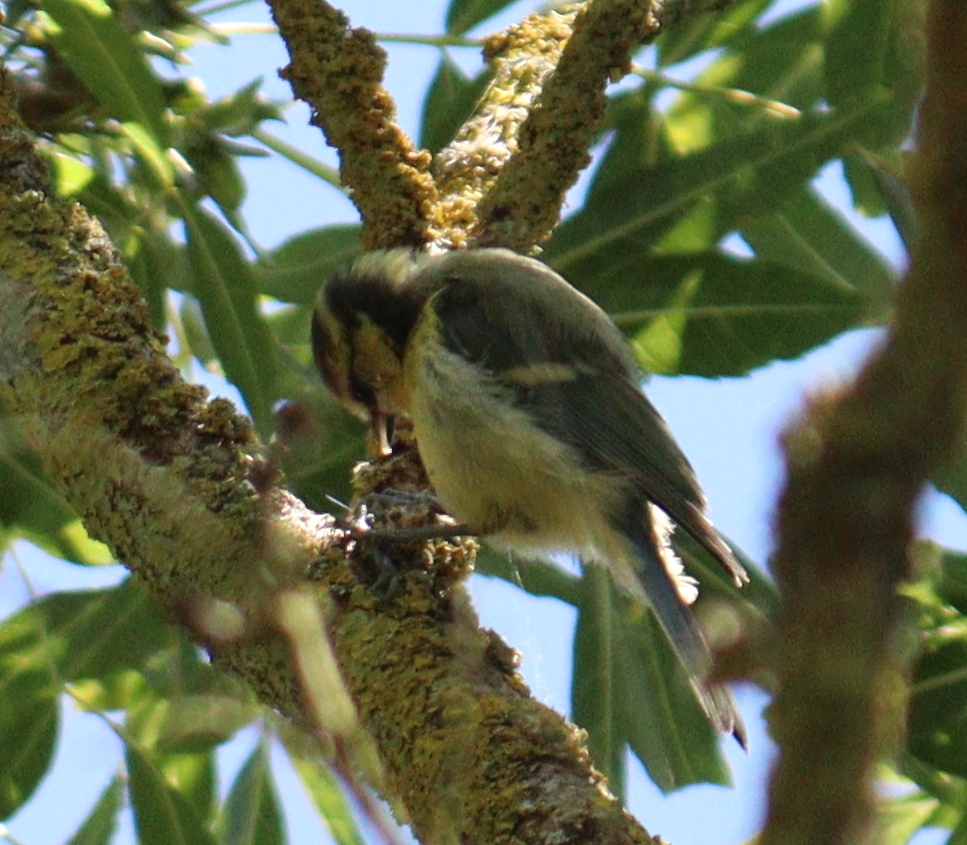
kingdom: Animalia
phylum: Chordata
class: Aves
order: Passeriformes
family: Paridae
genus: Cyanistes
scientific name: Cyanistes caeruleus
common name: Eurasian blue tit
